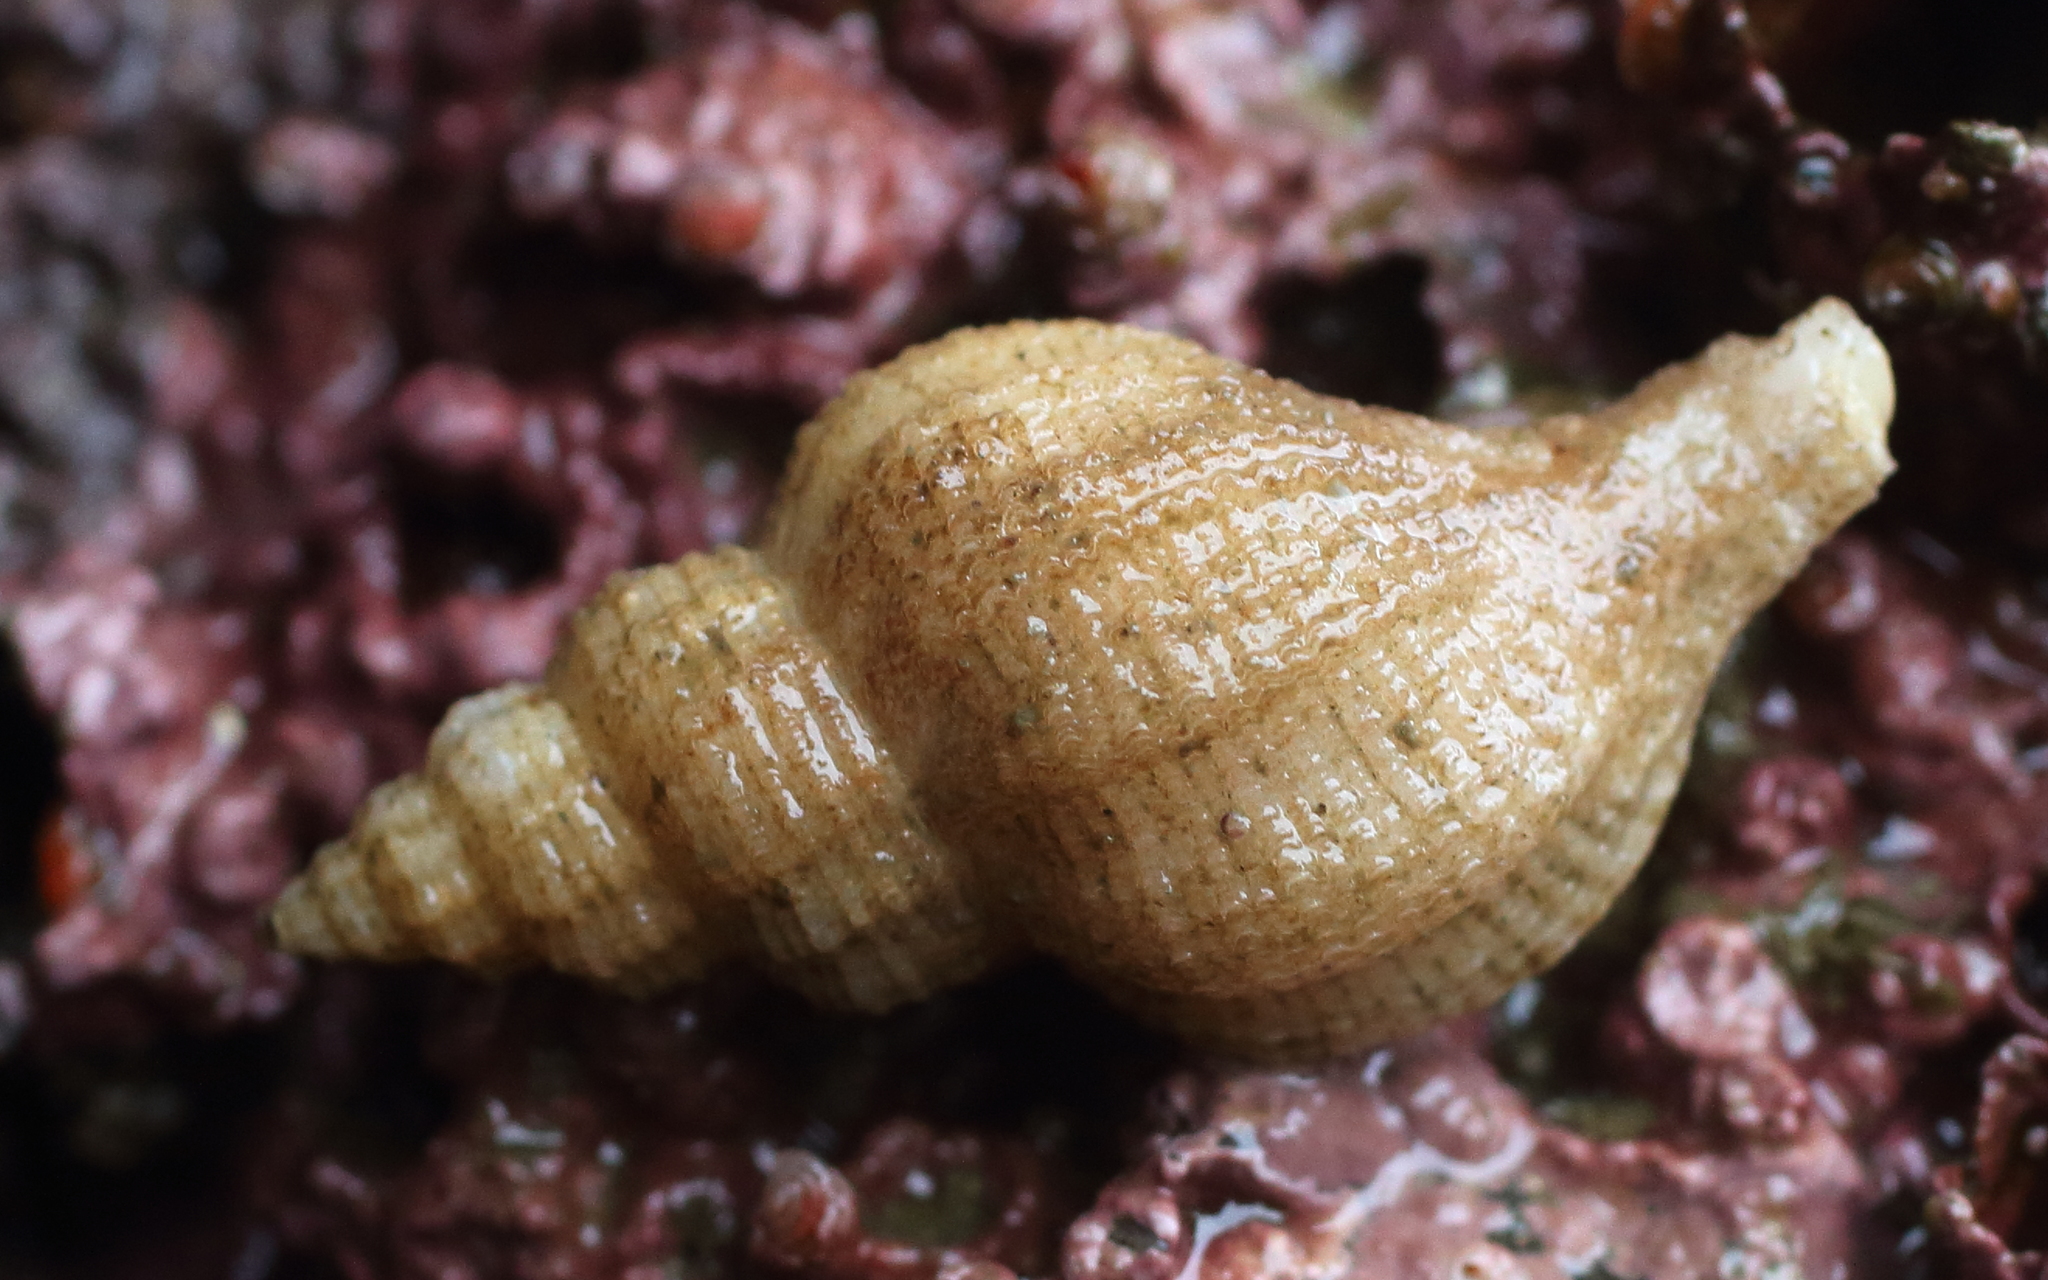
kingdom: Animalia
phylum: Mollusca
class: Gastropoda
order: Neogastropoda
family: Muricidae
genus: Scabrotrophon
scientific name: Scabrotrophon maltzani
